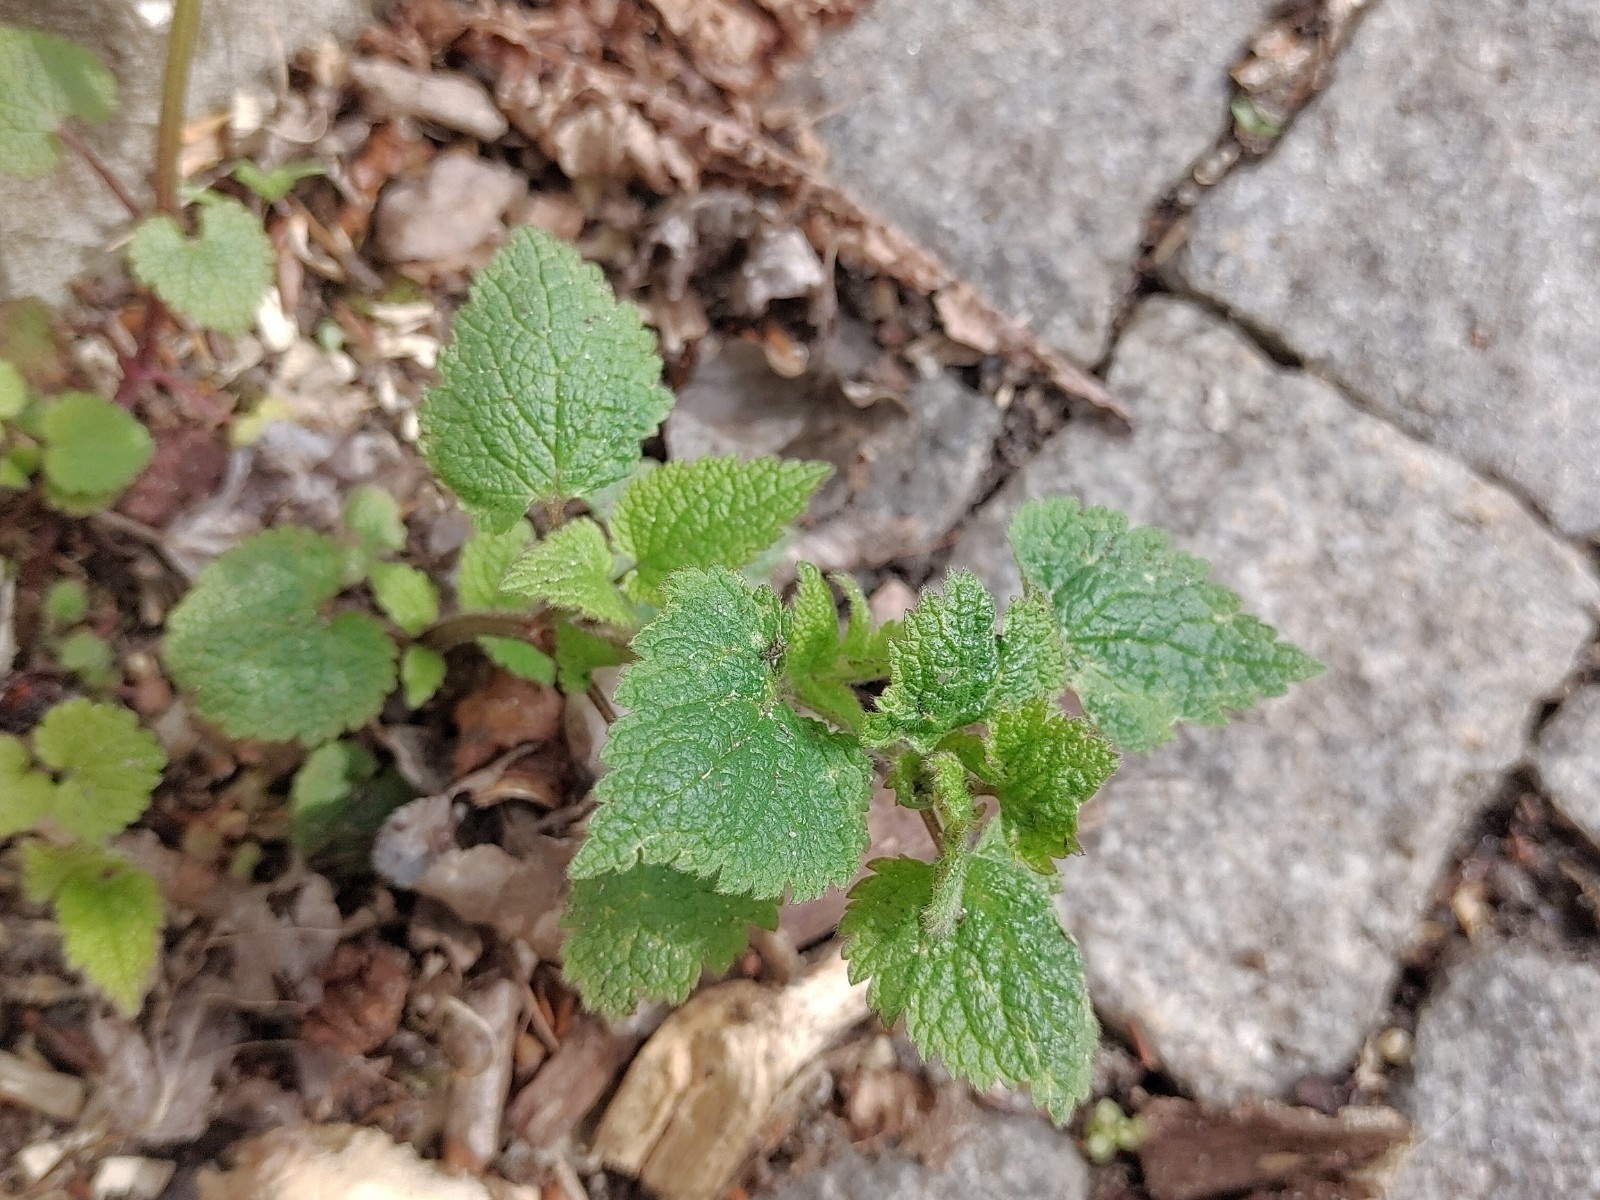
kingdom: Plantae
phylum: Tracheophyta
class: Magnoliopsida
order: Lamiales
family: Lamiaceae
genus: Lamium
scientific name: Lamium maculatum
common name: Spotted dead-nettle
